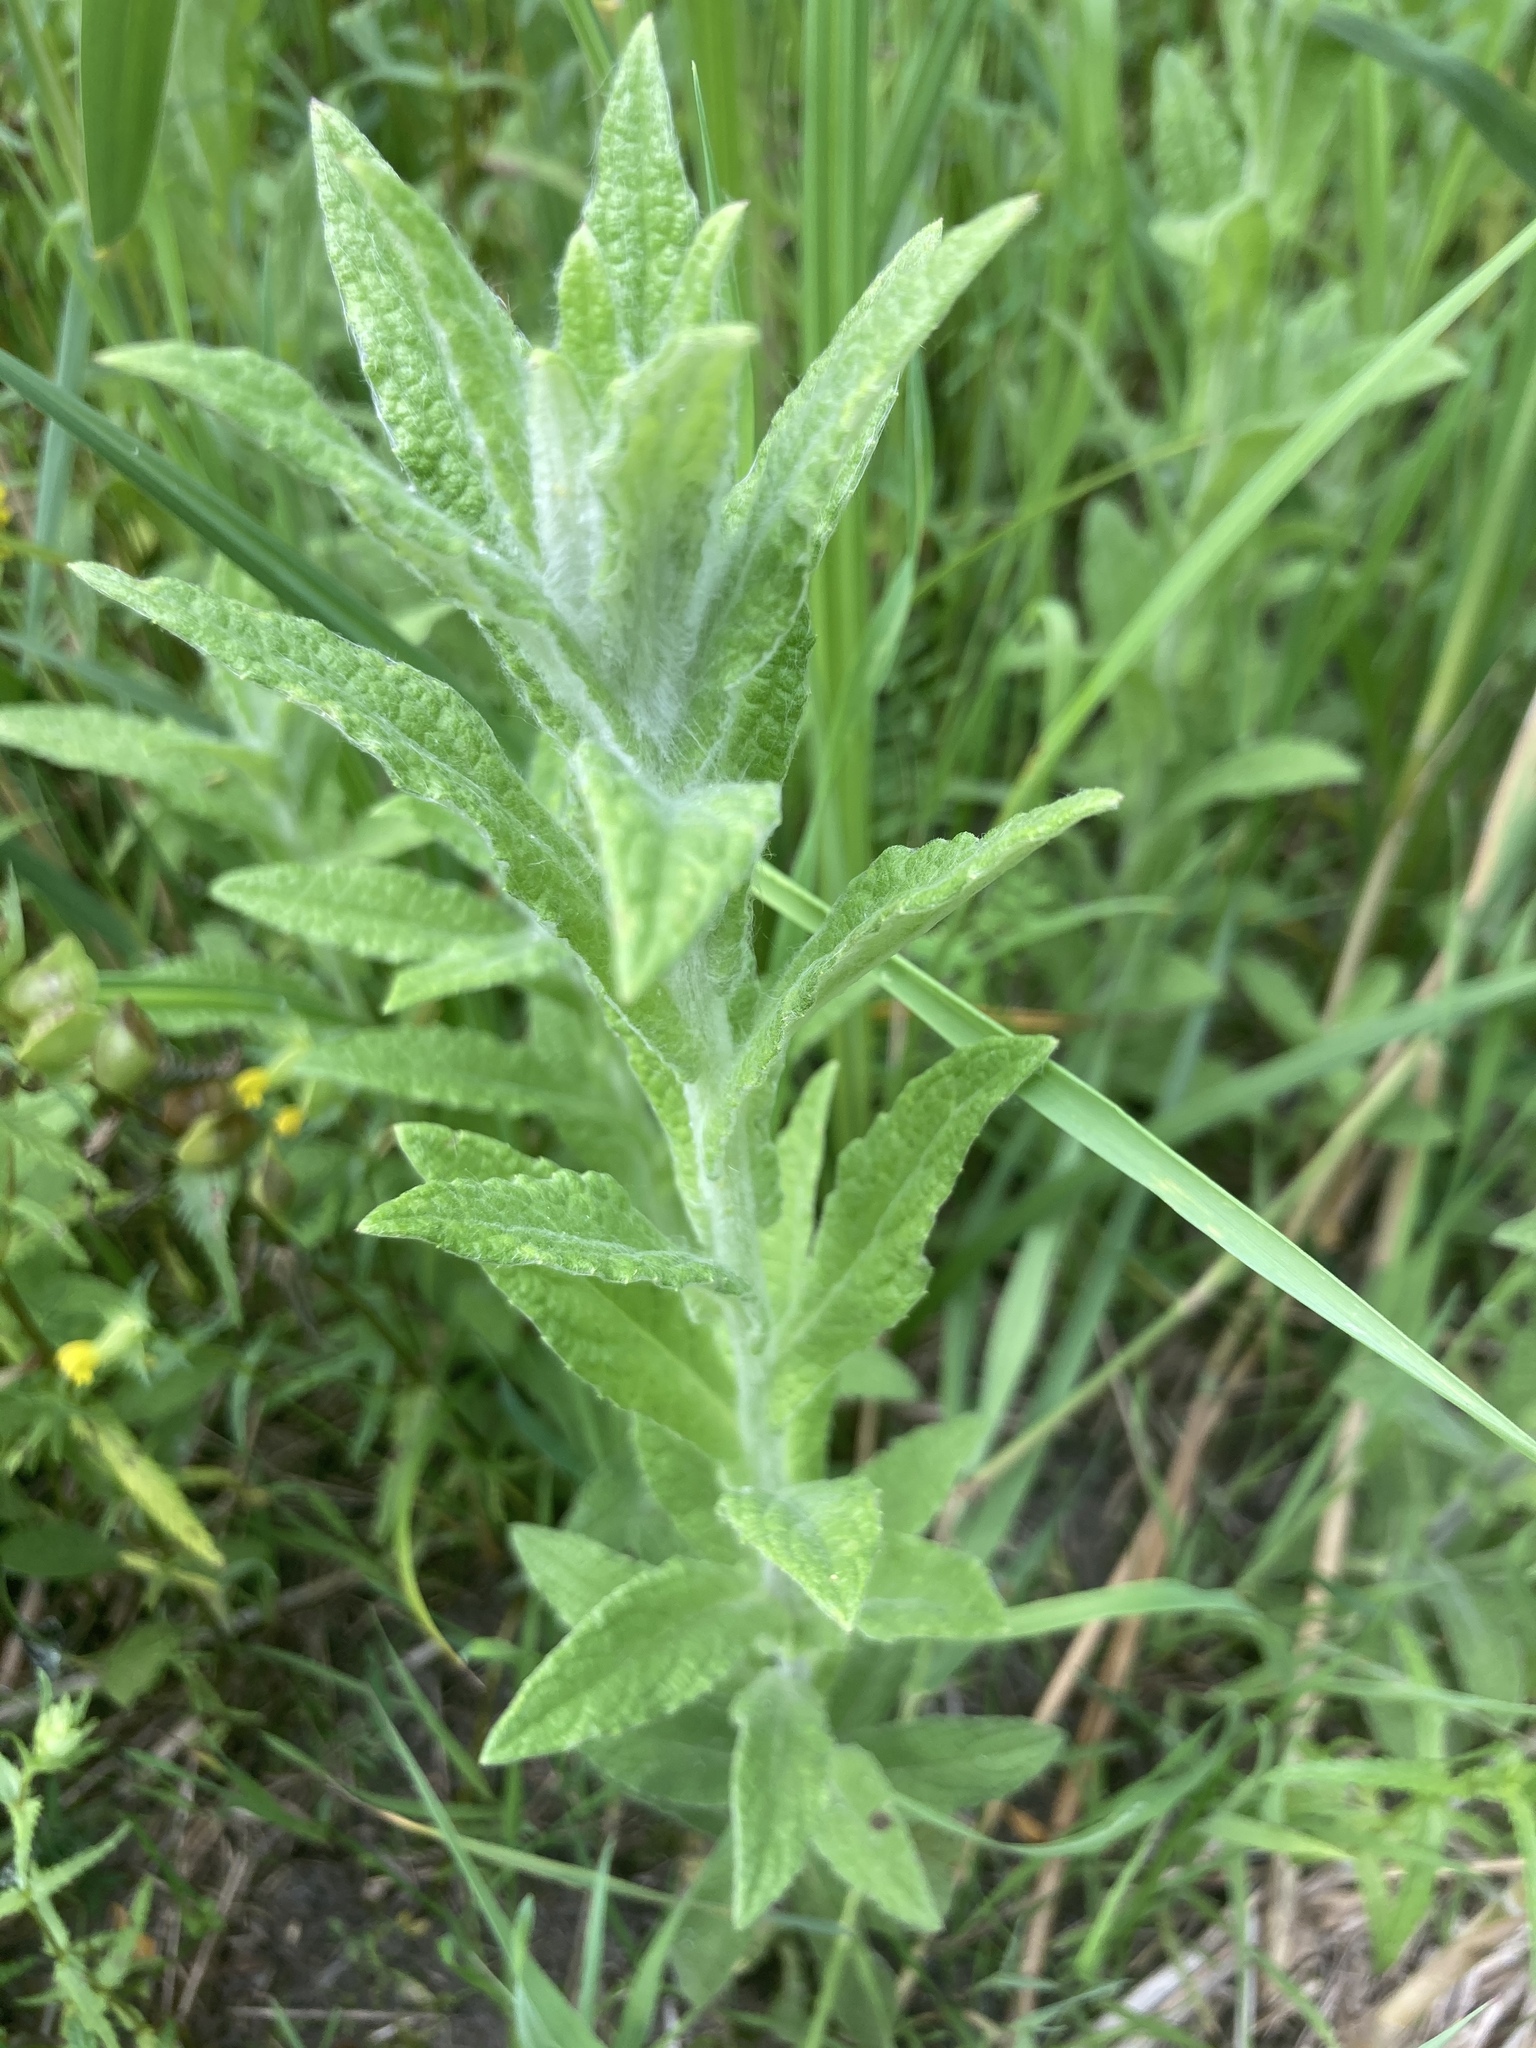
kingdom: Plantae
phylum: Tracheophyta
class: Magnoliopsida
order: Asterales
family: Asteraceae
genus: Pulicaria
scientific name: Pulicaria dysenterica
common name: Common fleabane
